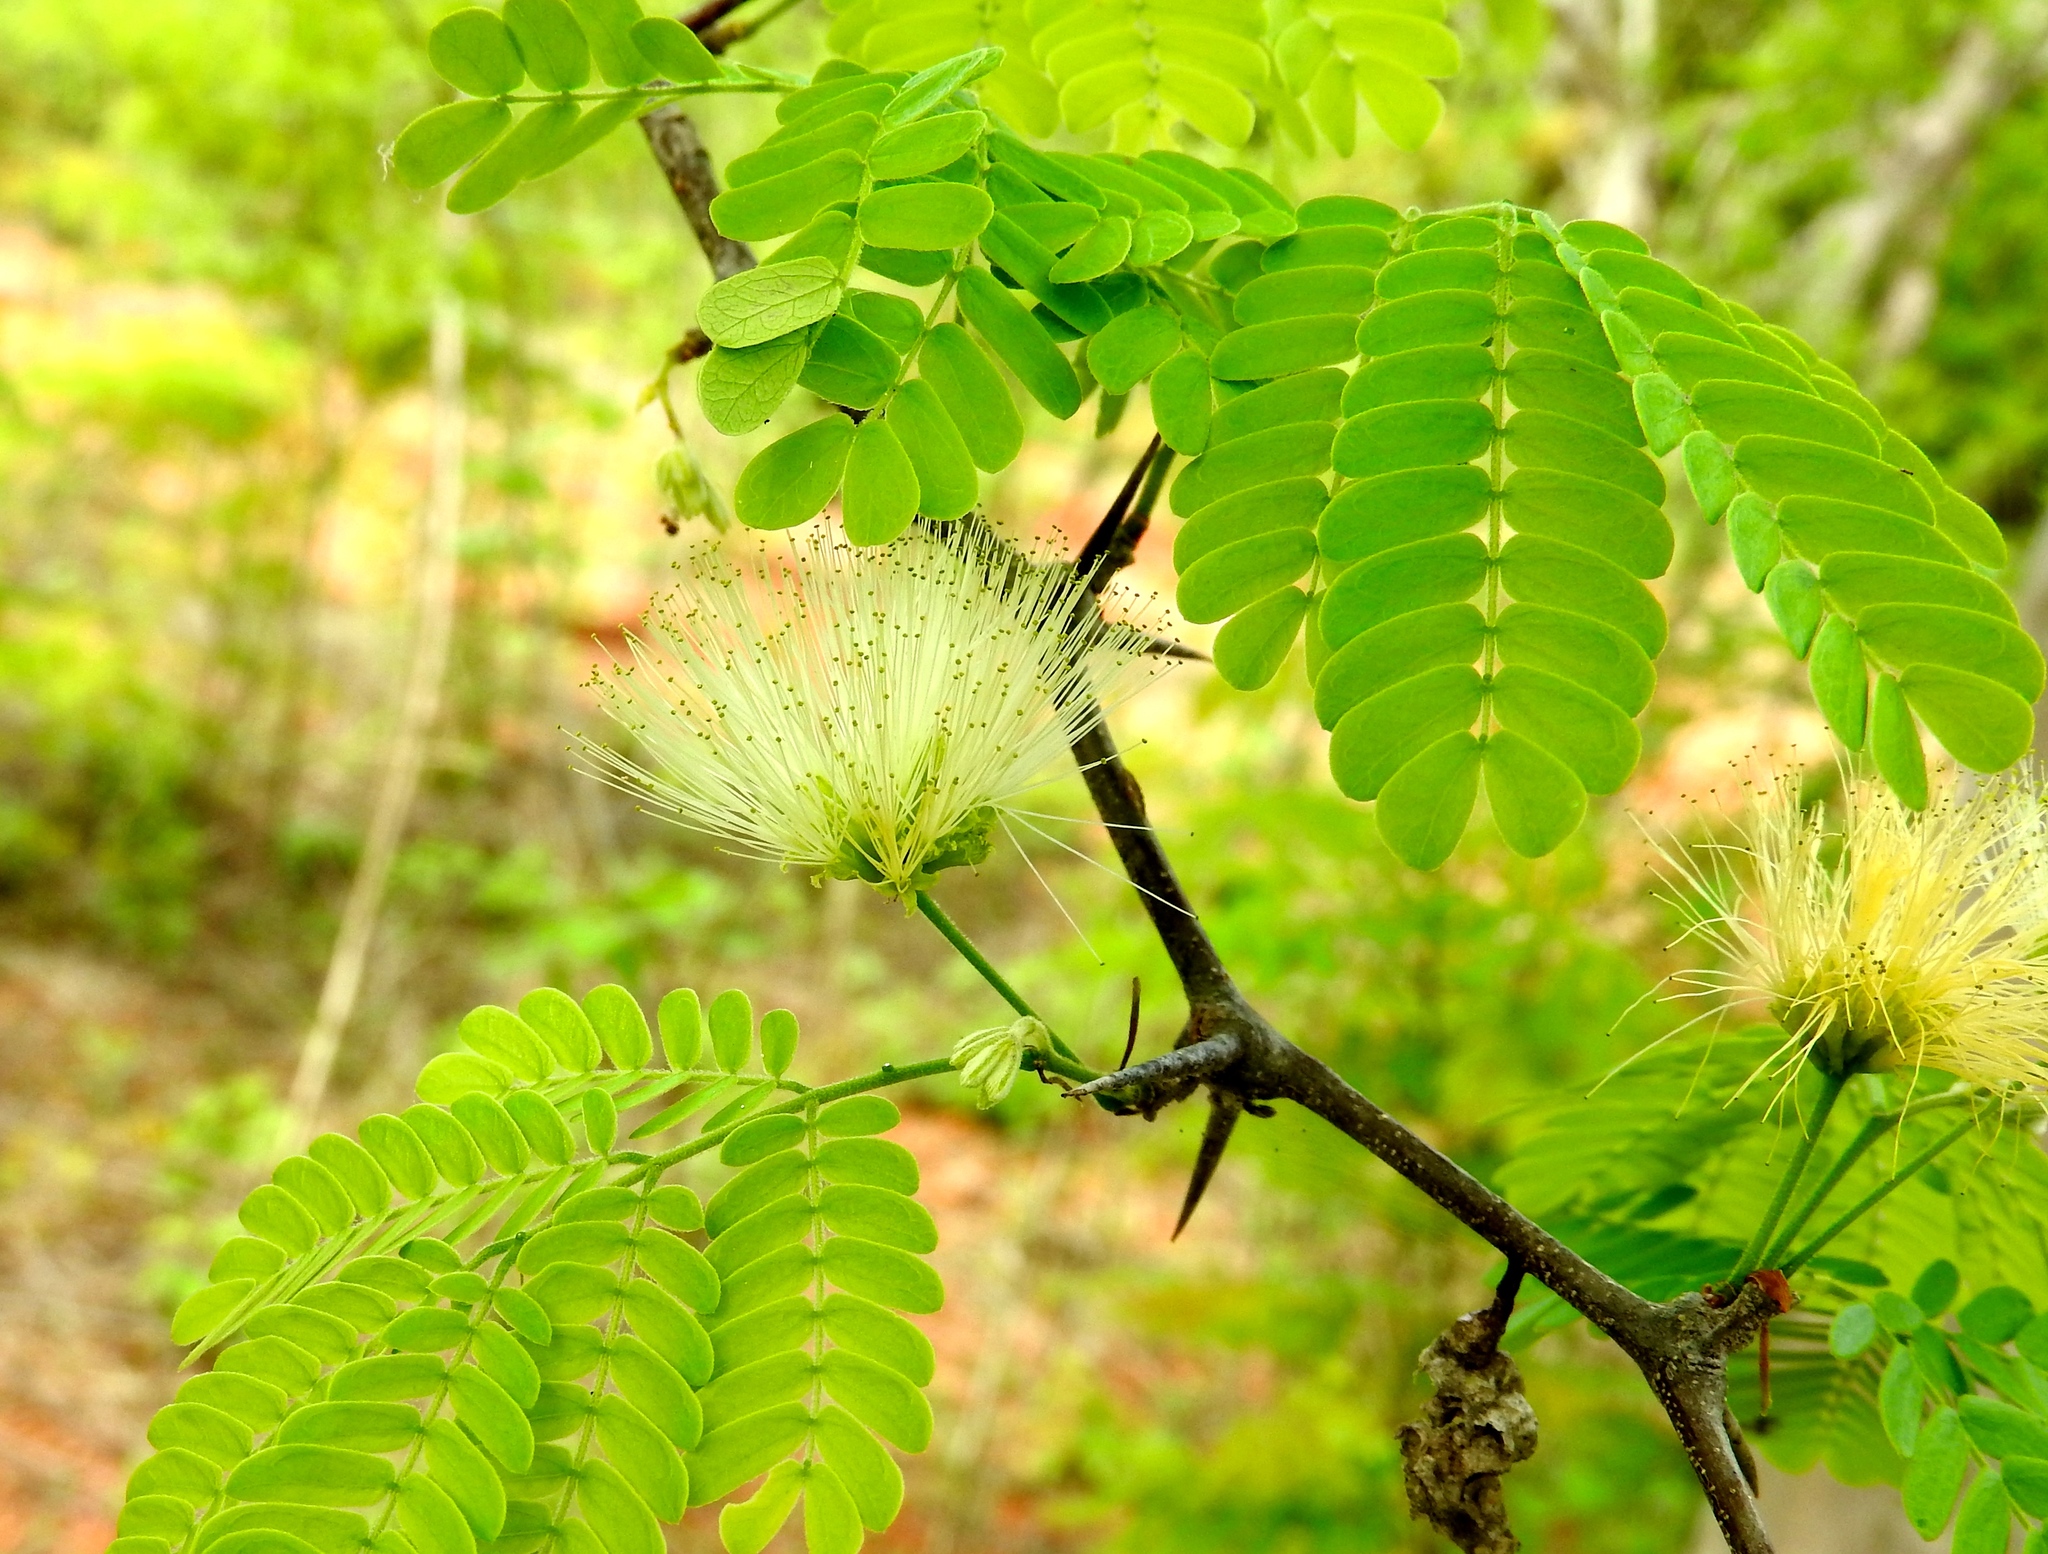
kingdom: Plantae
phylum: Tracheophyta
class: Magnoliopsida
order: Fabales
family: Fabaceae
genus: Chloroleucon
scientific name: Chloroleucon mangense
